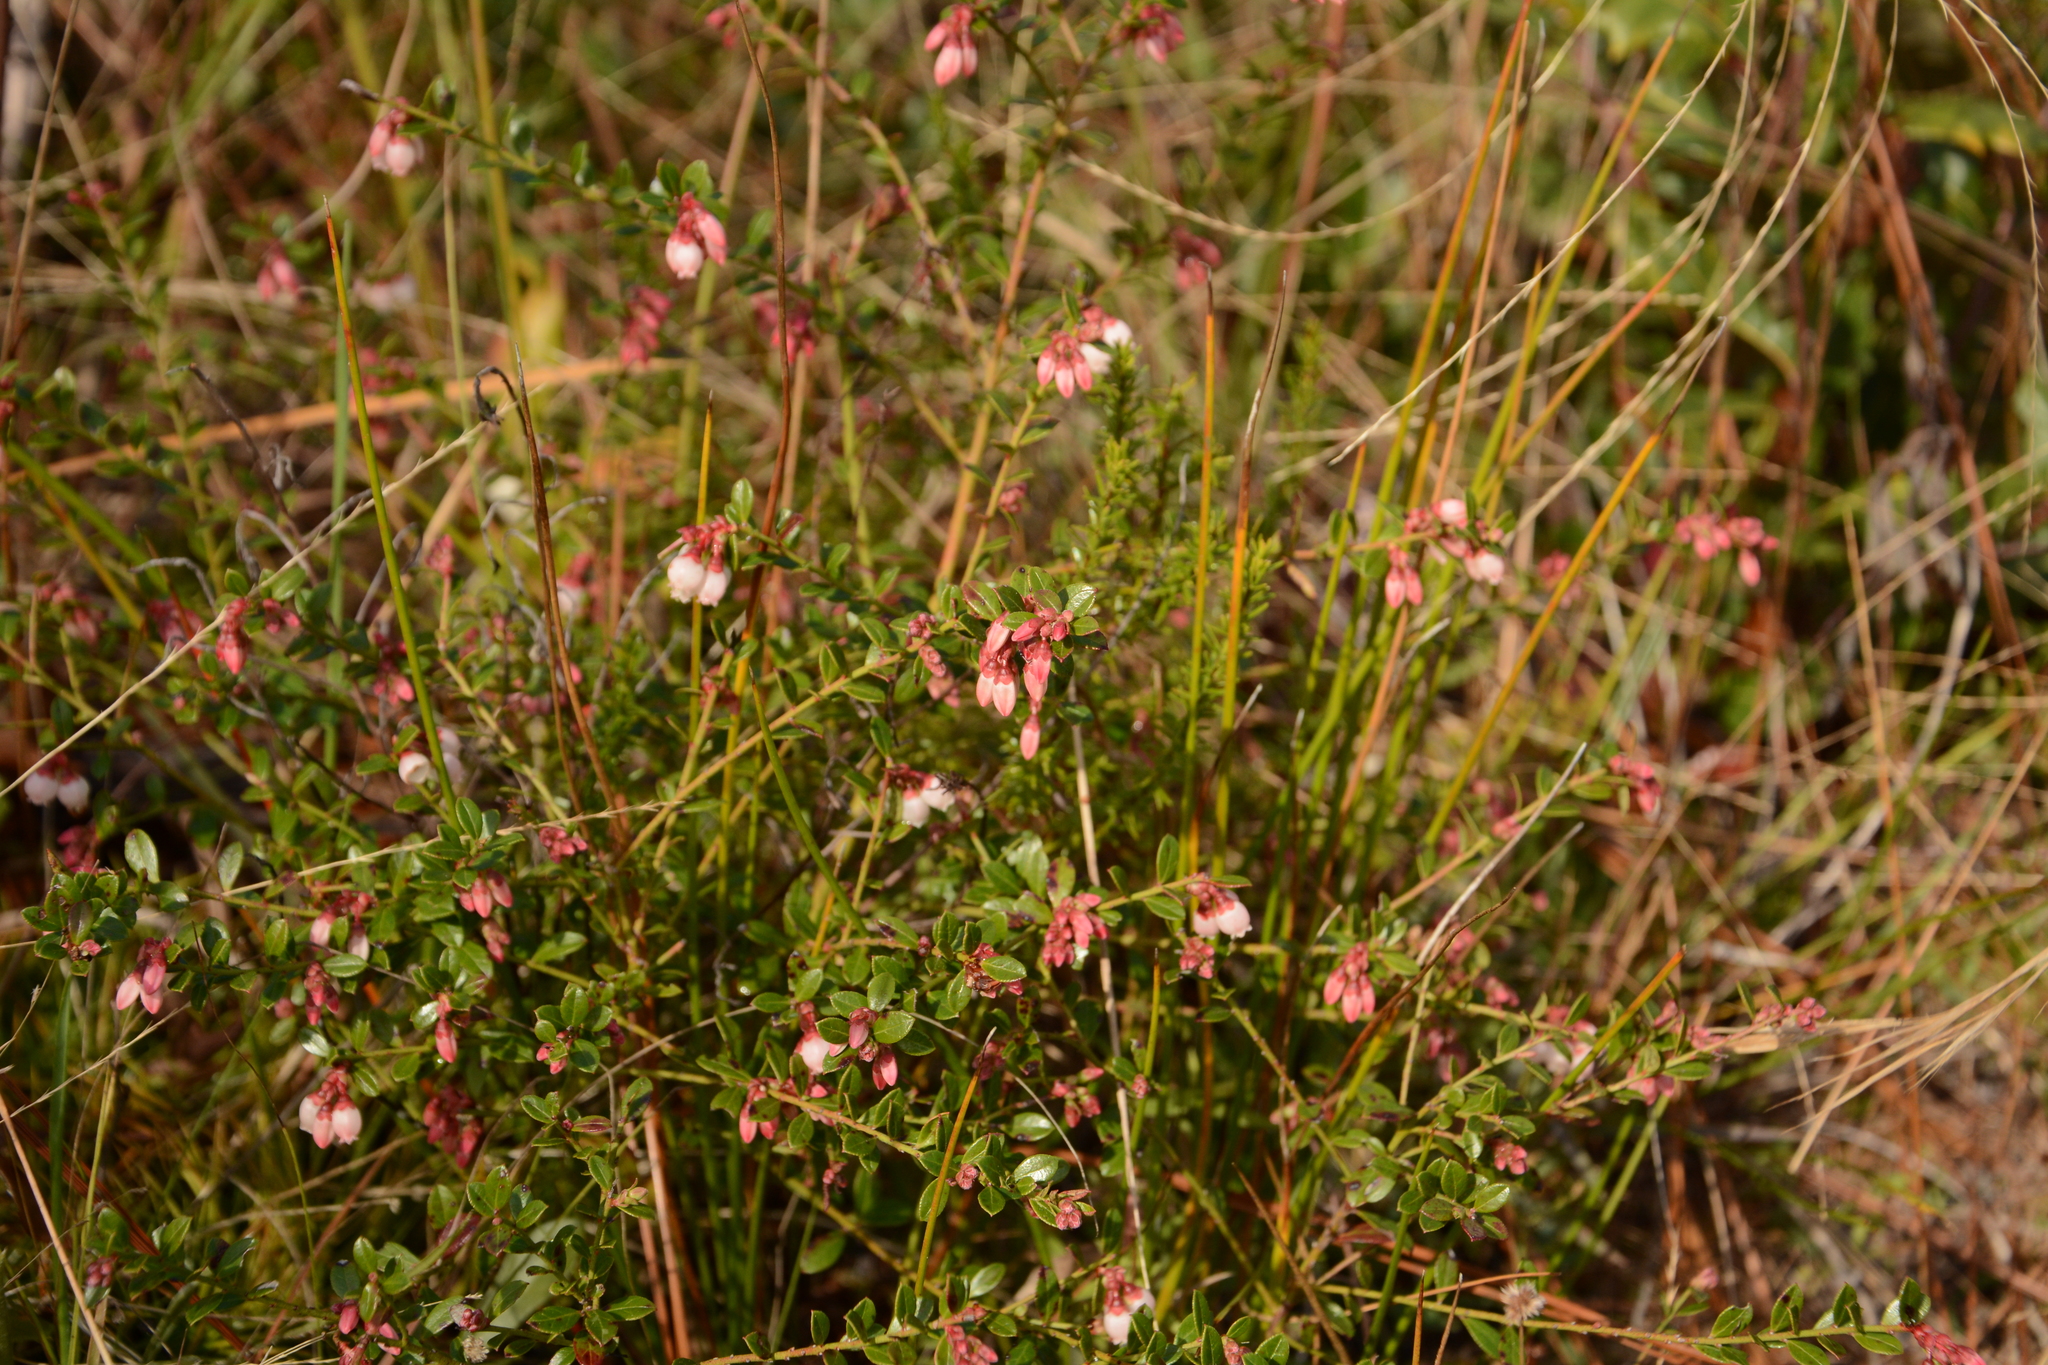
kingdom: Plantae
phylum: Tracheophyta
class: Magnoliopsida
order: Ericales
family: Ericaceae
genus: Vaccinium
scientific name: Vaccinium myrsinites
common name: Evergreen blueberry
